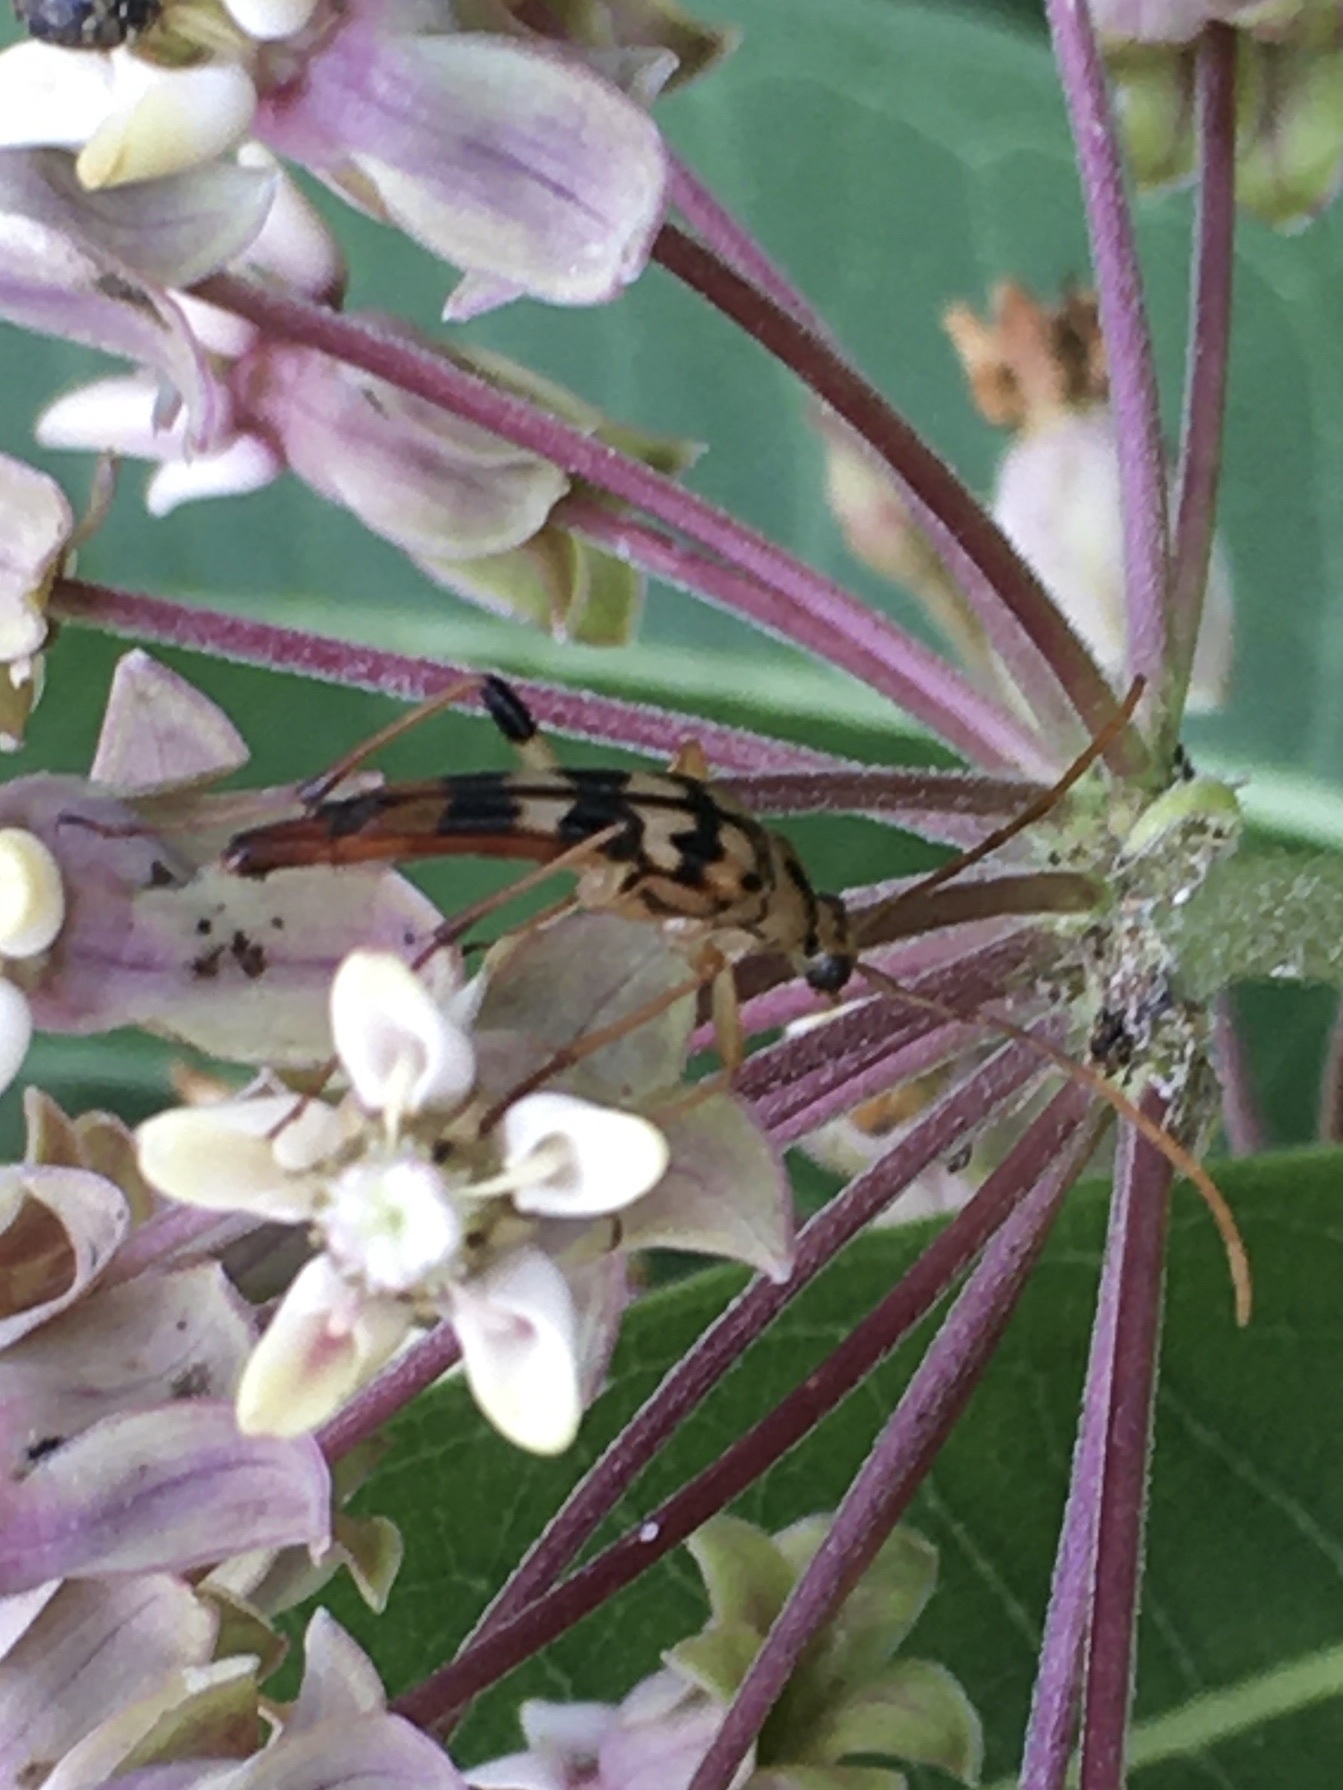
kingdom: Animalia
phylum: Arthropoda
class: Insecta
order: Coleoptera
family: Cerambycidae
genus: Strangalia
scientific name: Strangalia luteicornis
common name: Yellow-horned flower longhorn beetle
